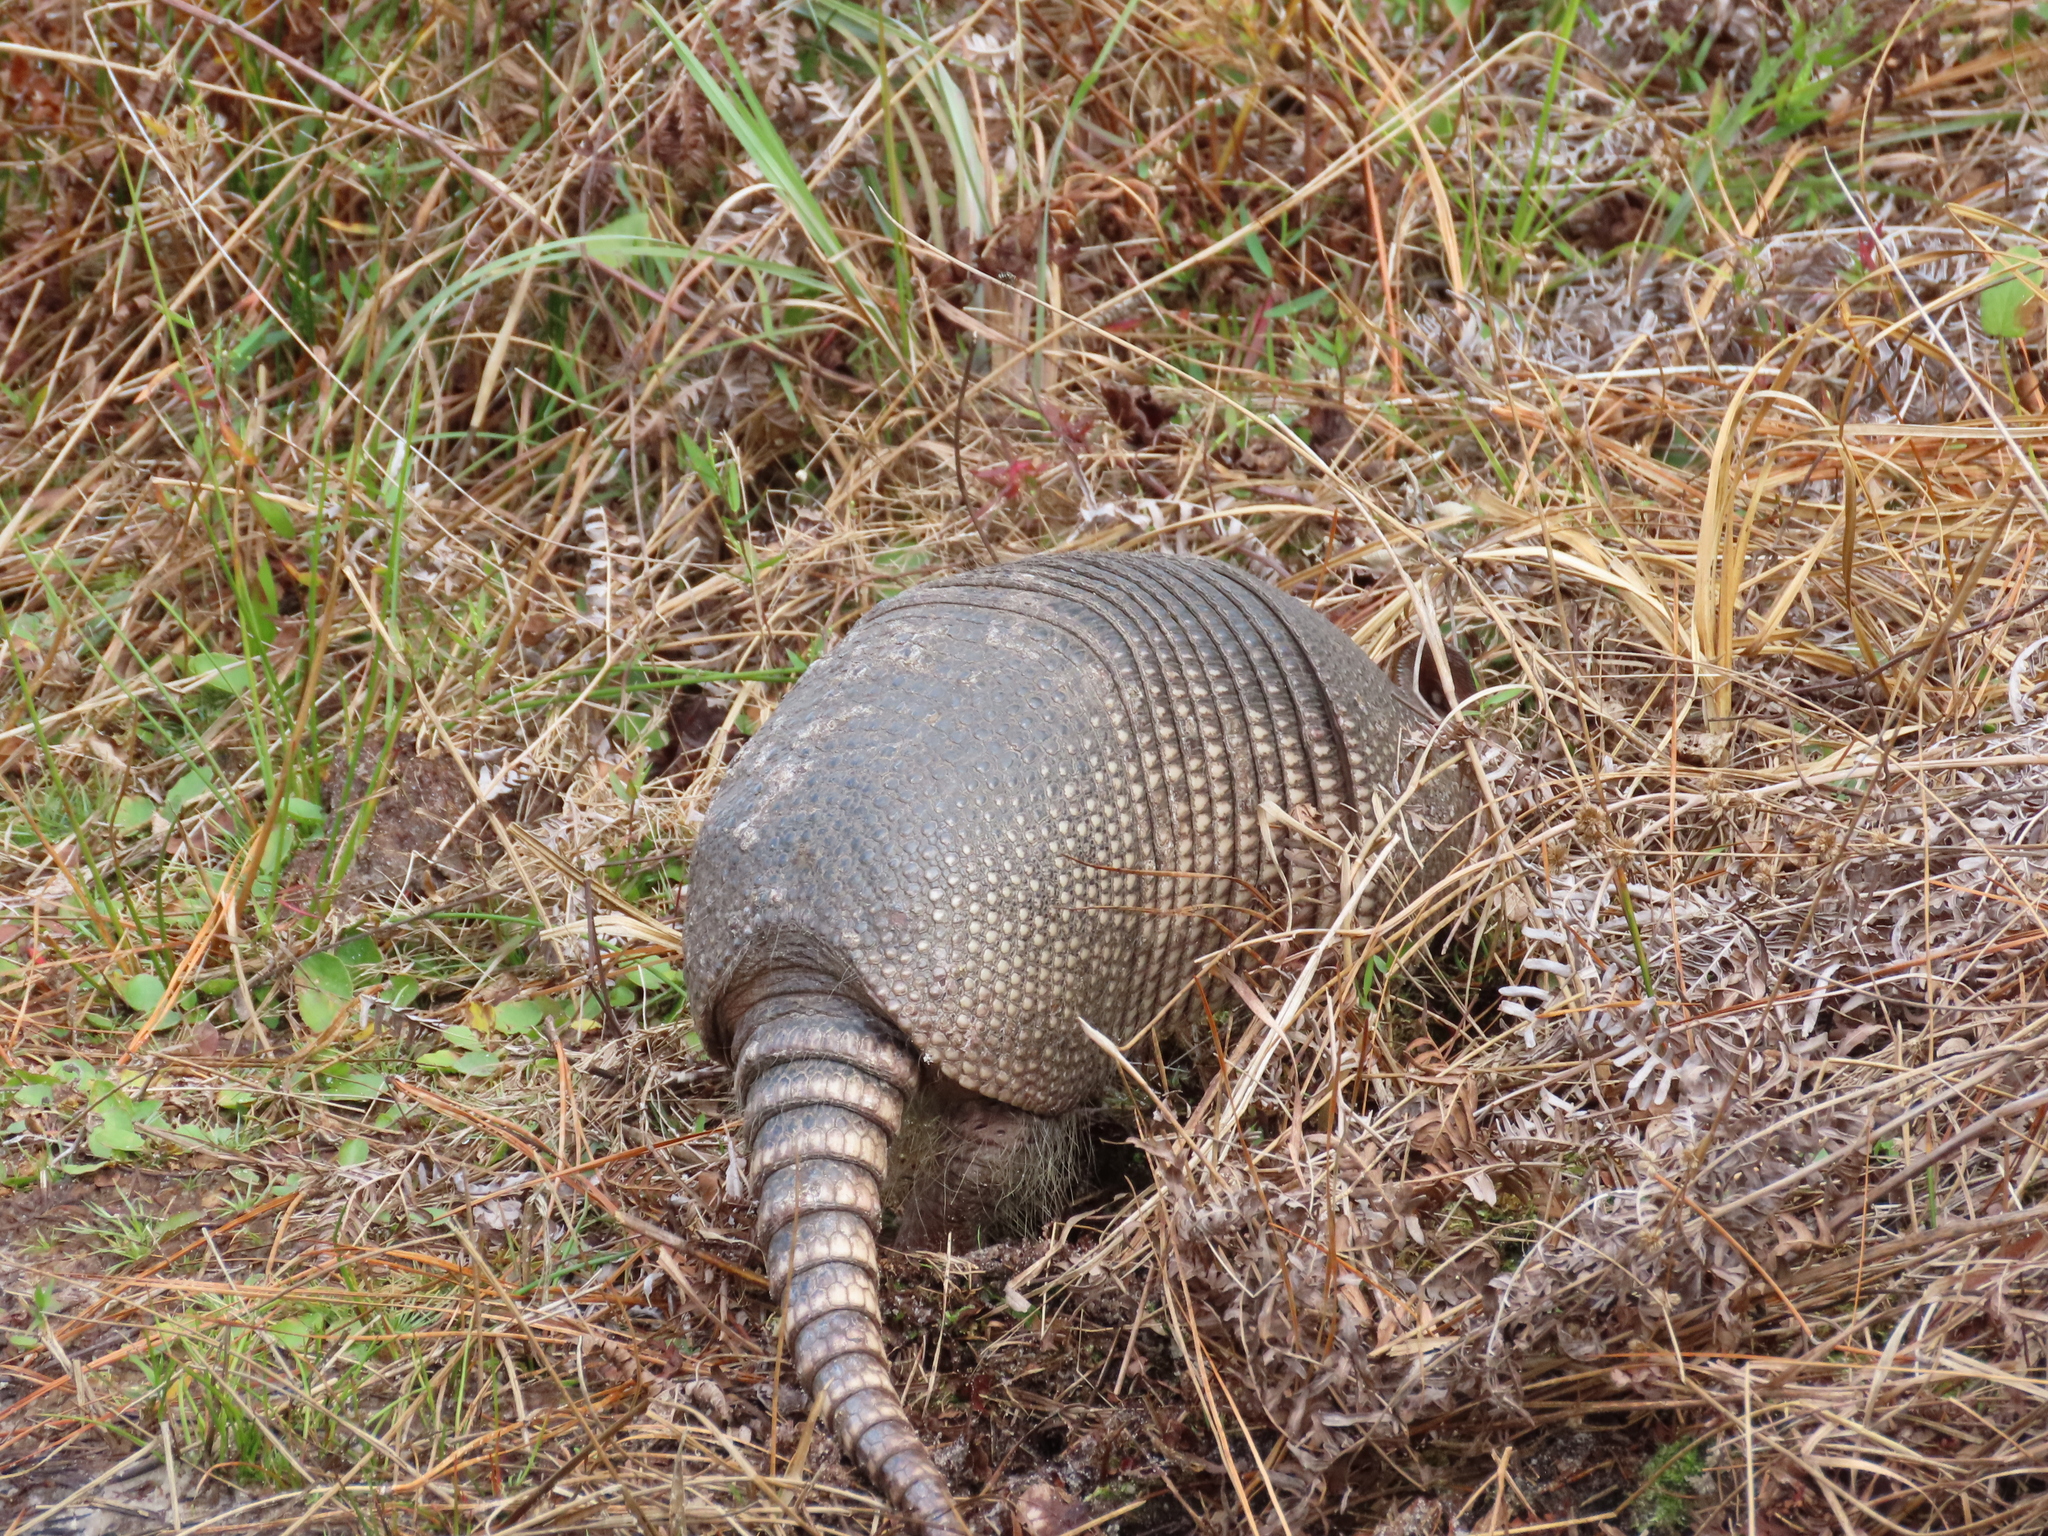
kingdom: Animalia
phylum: Chordata
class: Mammalia
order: Cingulata
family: Dasypodidae
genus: Dasypus
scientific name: Dasypus novemcinctus
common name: Nine-banded armadillo
